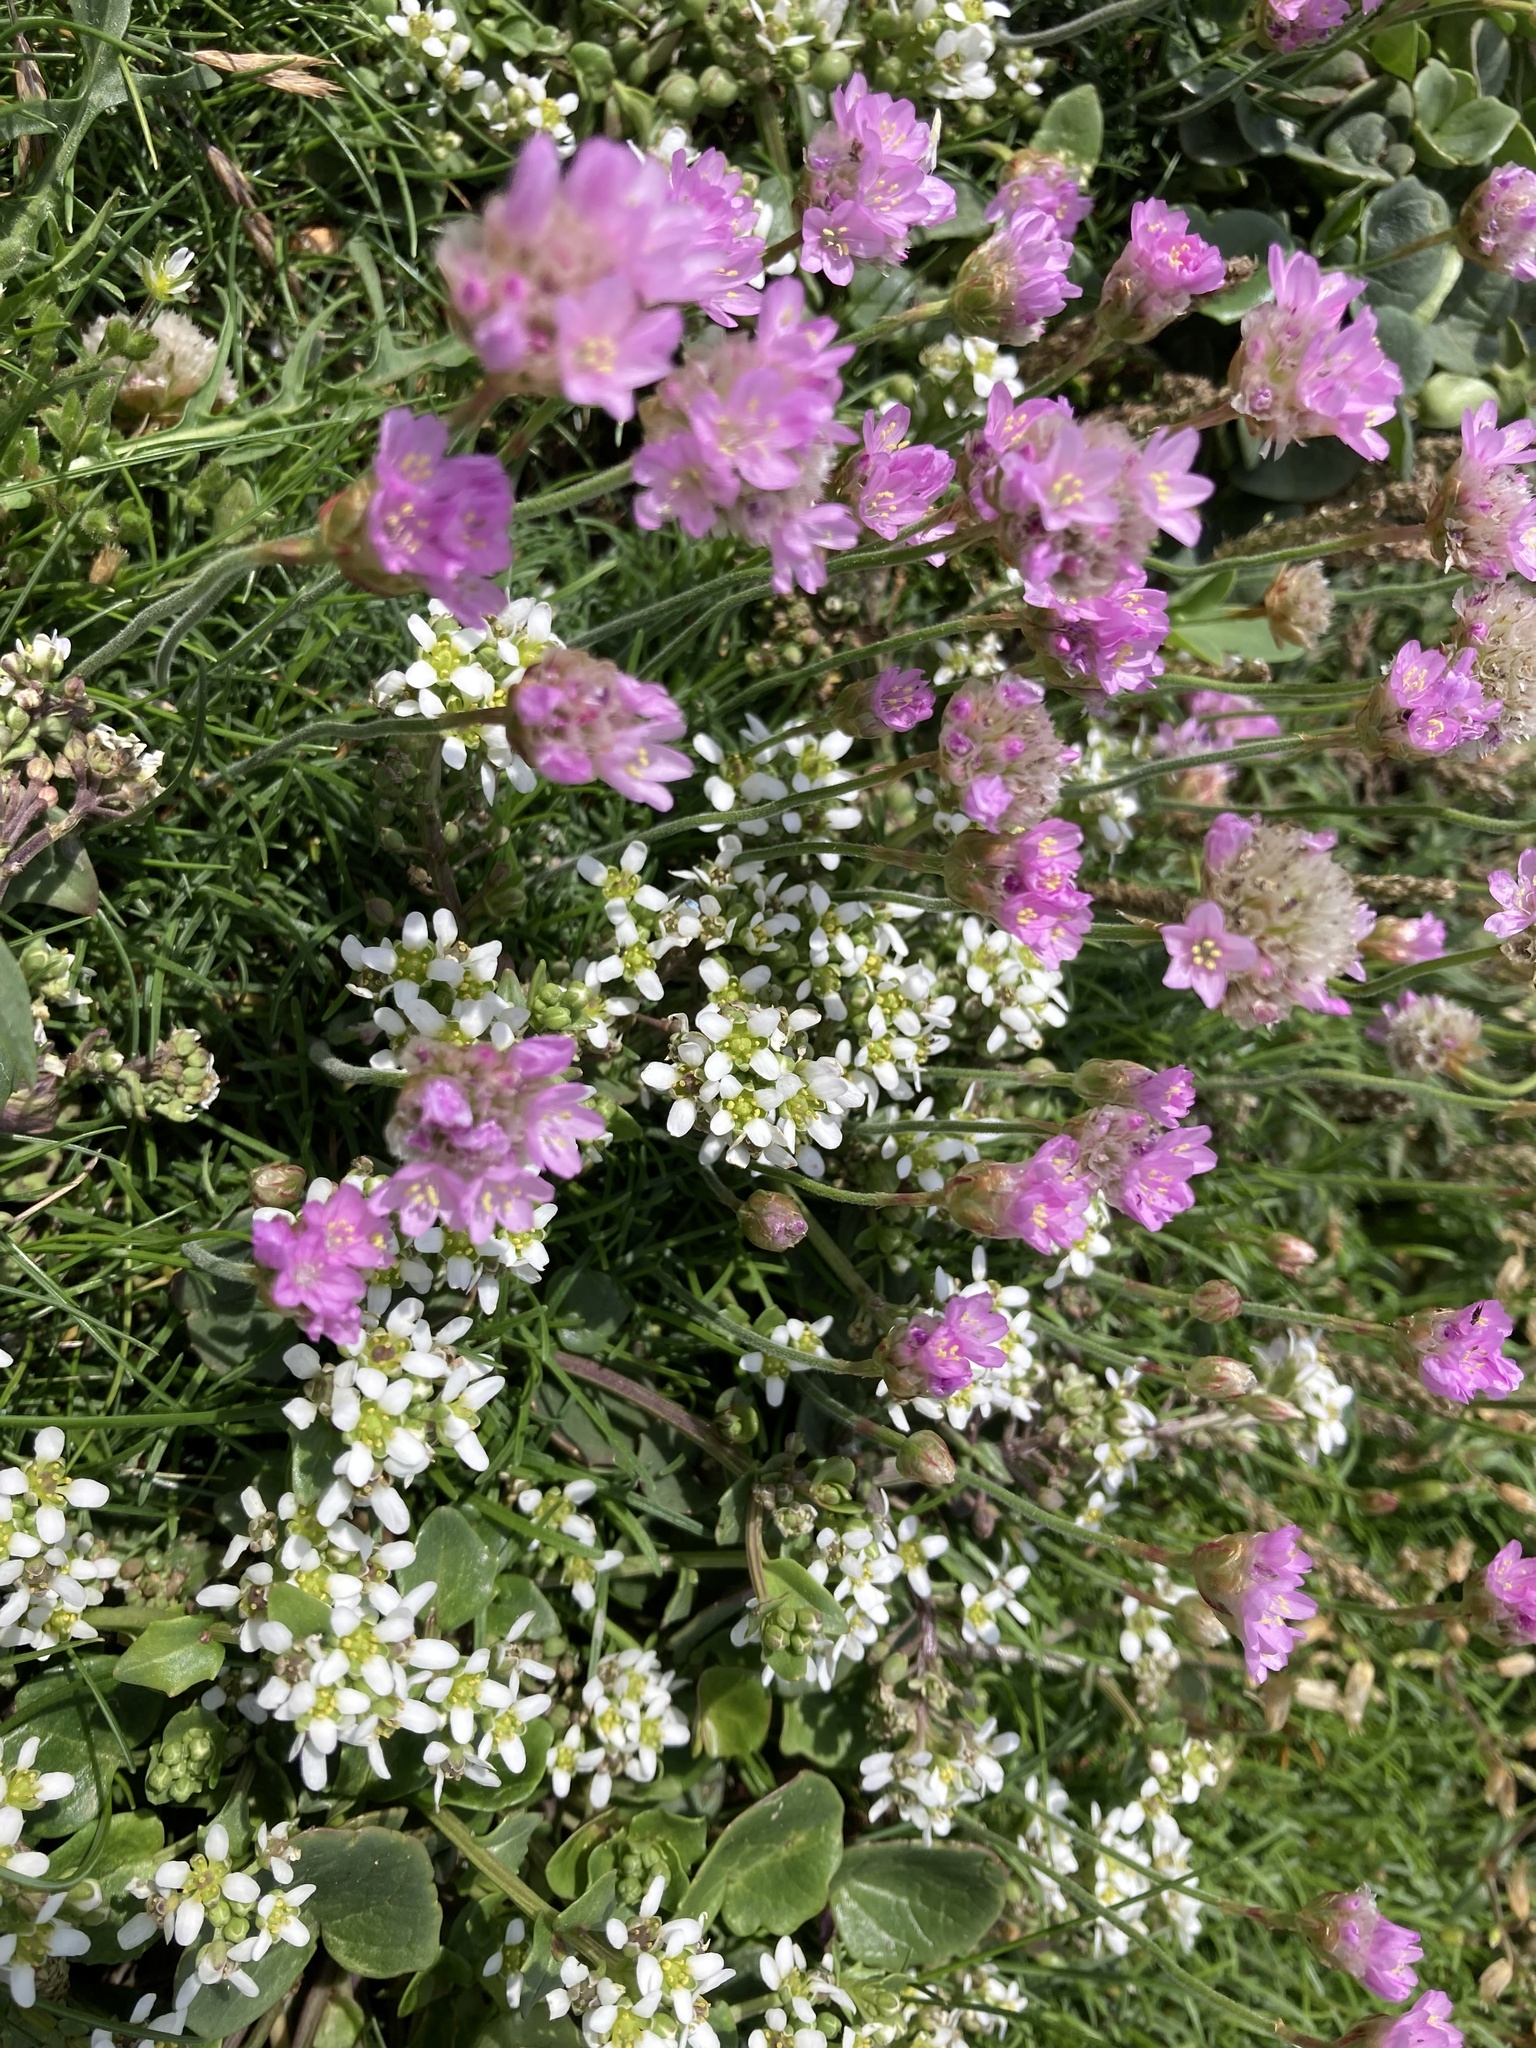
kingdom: Plantae
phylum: Tracheophyta
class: Magnoliopsida
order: Caryophyllales
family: Plumbaginaceae
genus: Armeria
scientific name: Armeria maritima
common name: Thrift
